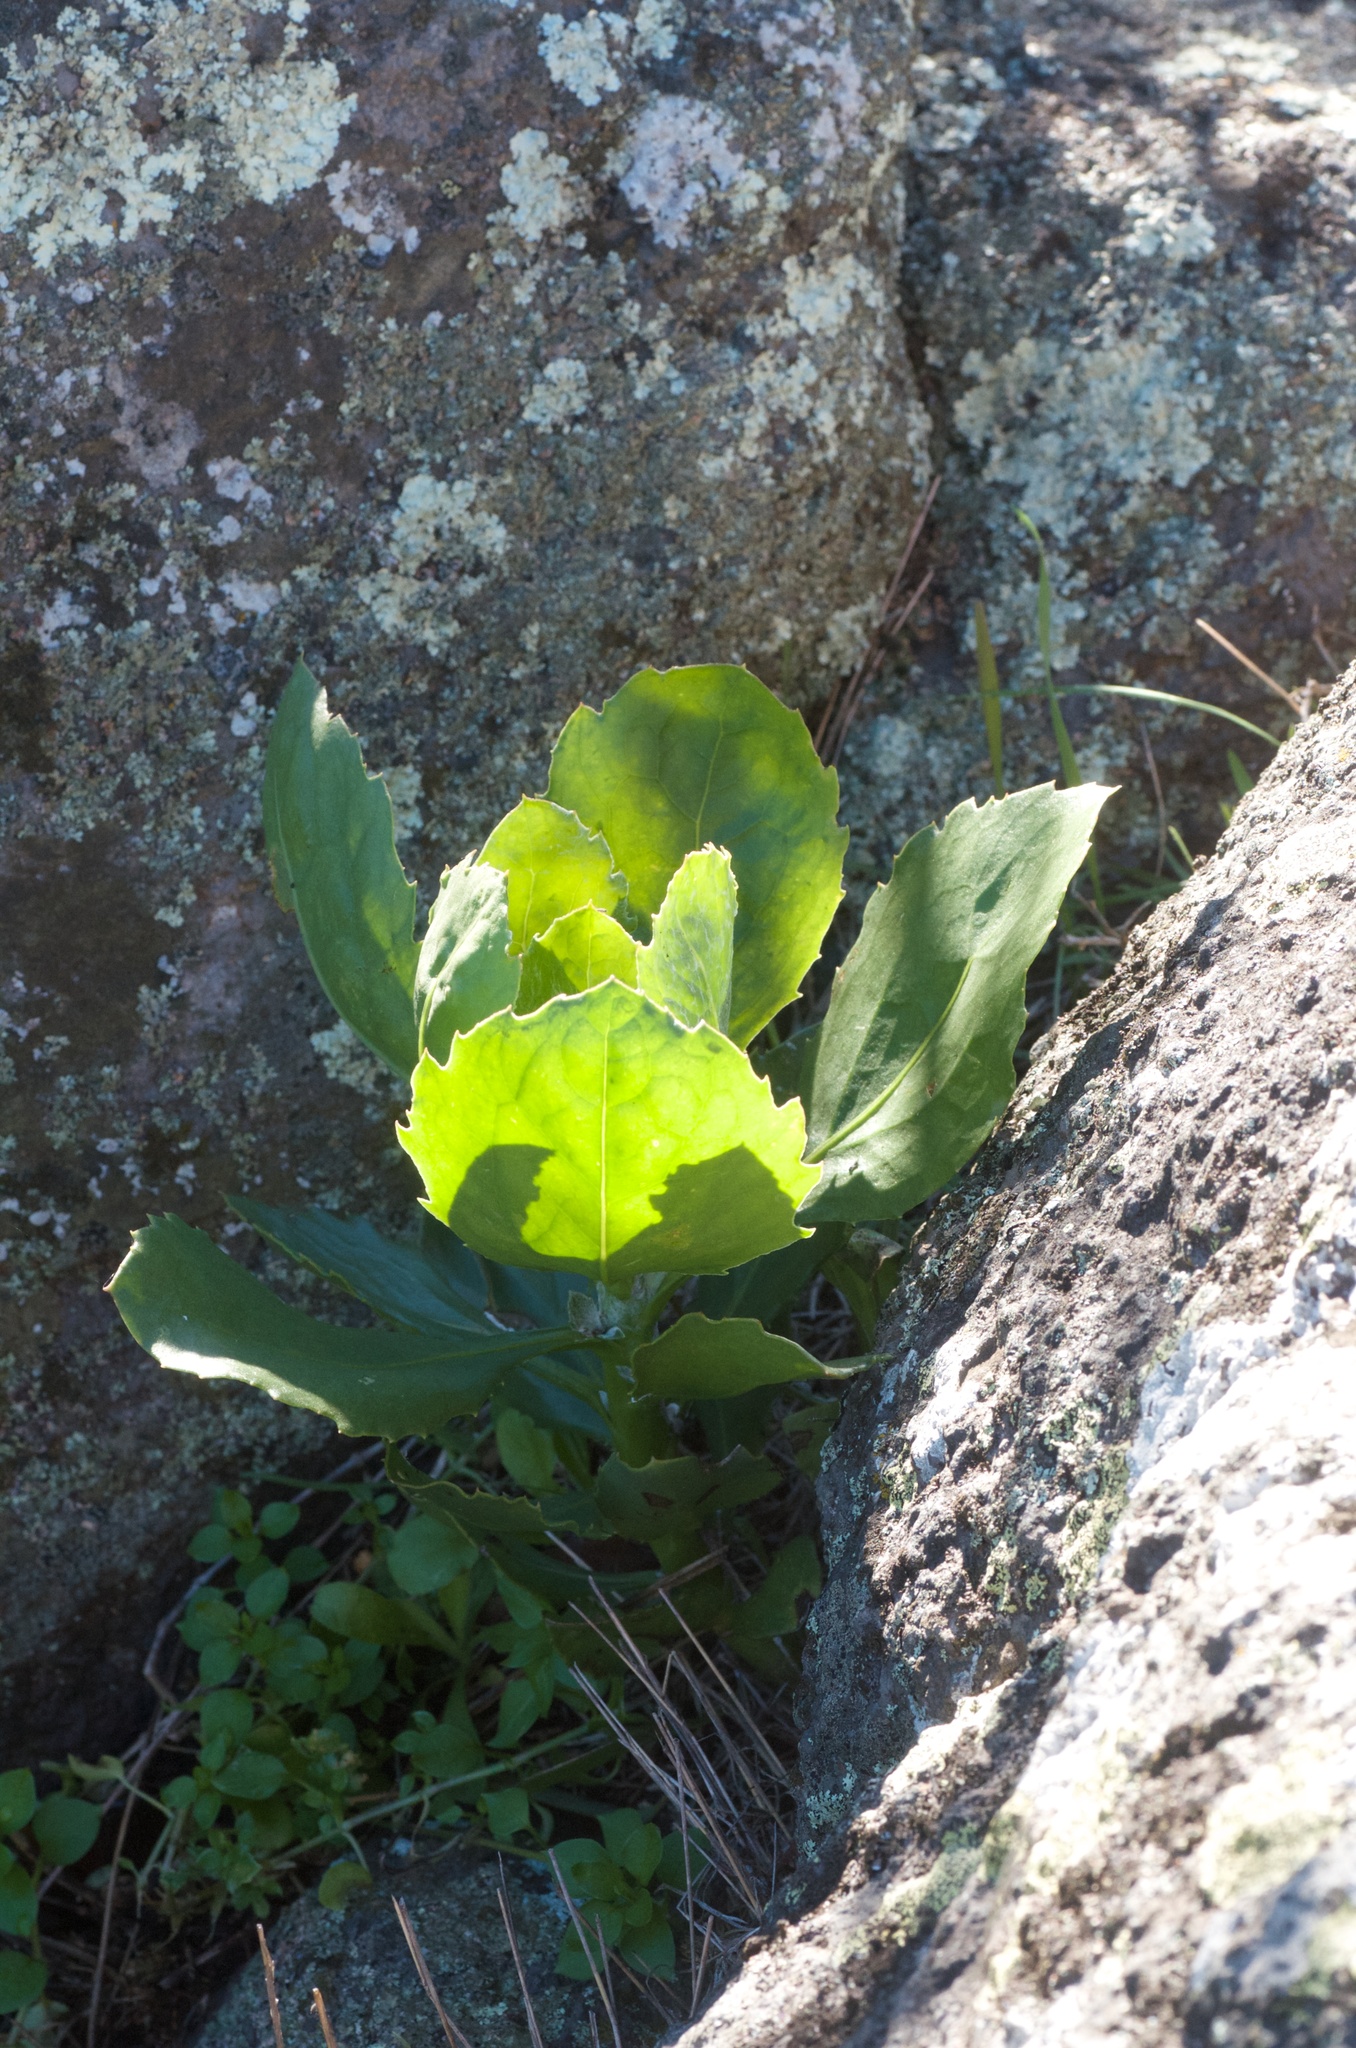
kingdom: Plantae
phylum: Tracheophyta
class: Magnoliopsida
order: Asterales
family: Asteraceae
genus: Osteospermum
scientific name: Osteospermum moniliferum
